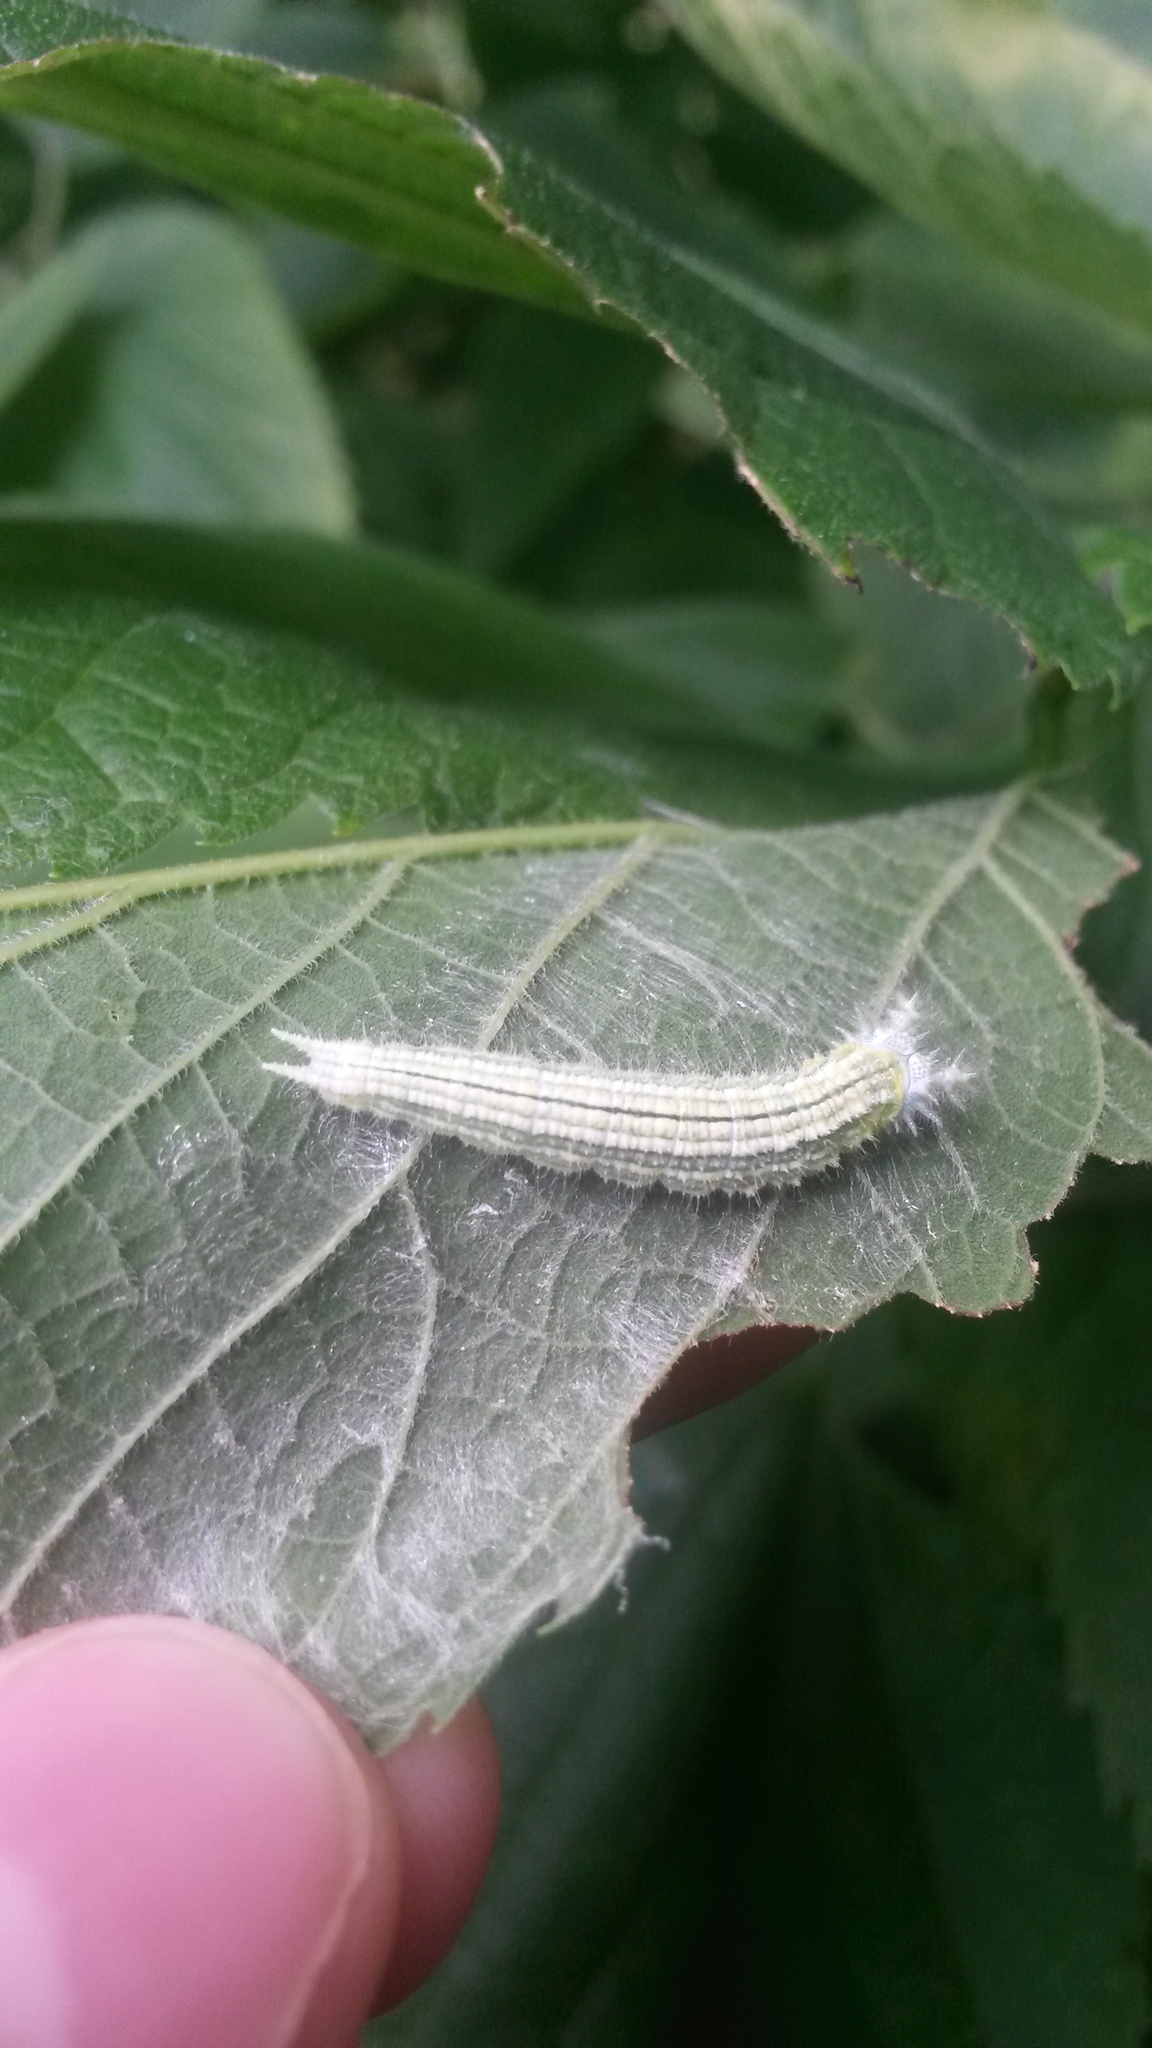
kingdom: Animalia
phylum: Arthropoda
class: Insecta
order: Lepidoptera
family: Nymphalidae
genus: Asterocampa
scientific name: Asterocampa clyton
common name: Tawny emperor
